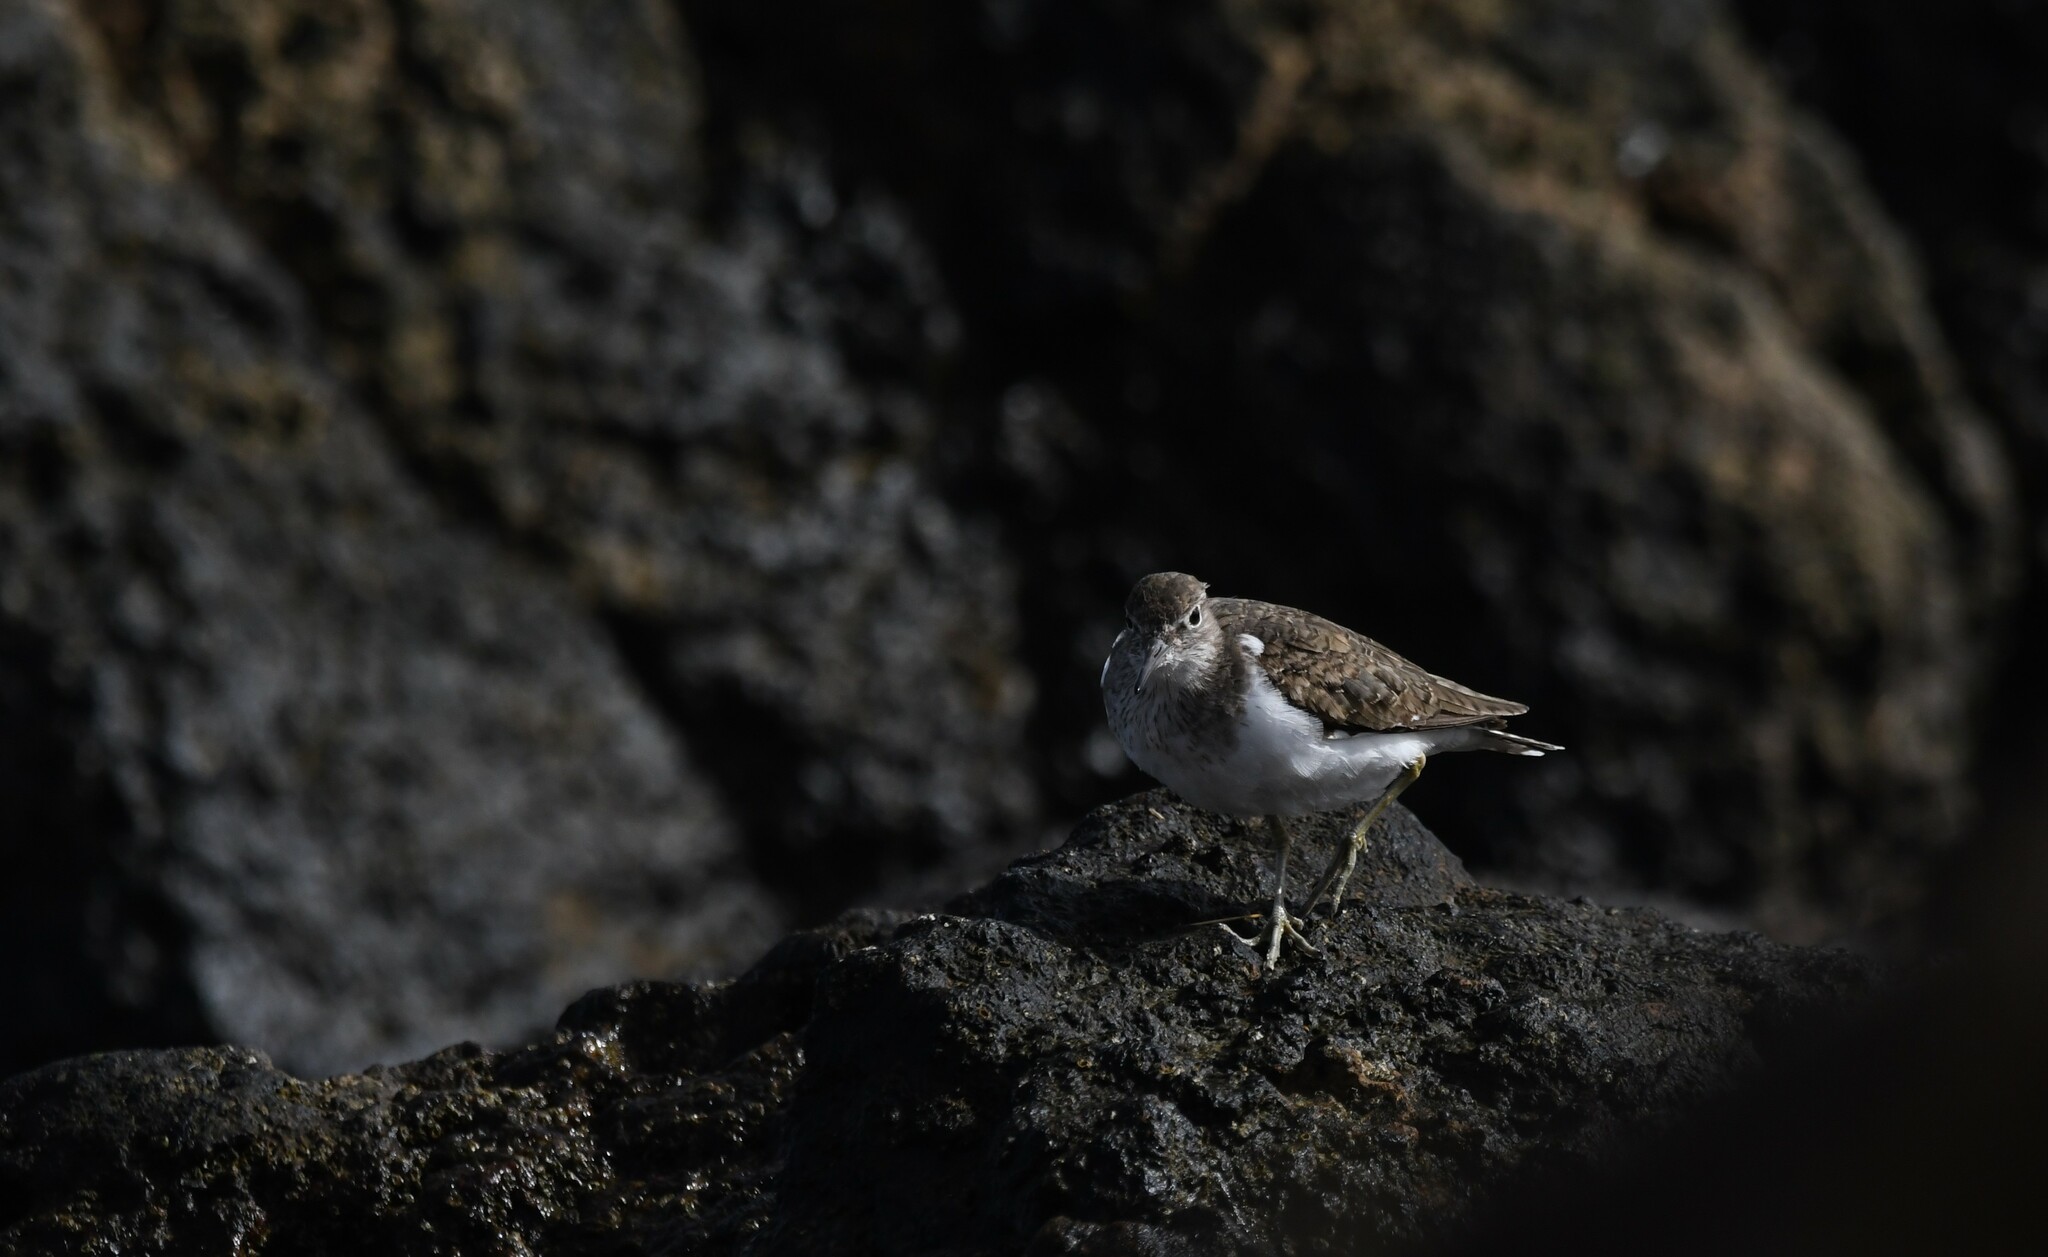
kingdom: Animalia
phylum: Chordata
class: Aves
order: Charadriiformes
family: Scolopacidae
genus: Actitis
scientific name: Actitis hypoleucos
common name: Common sandpiper
